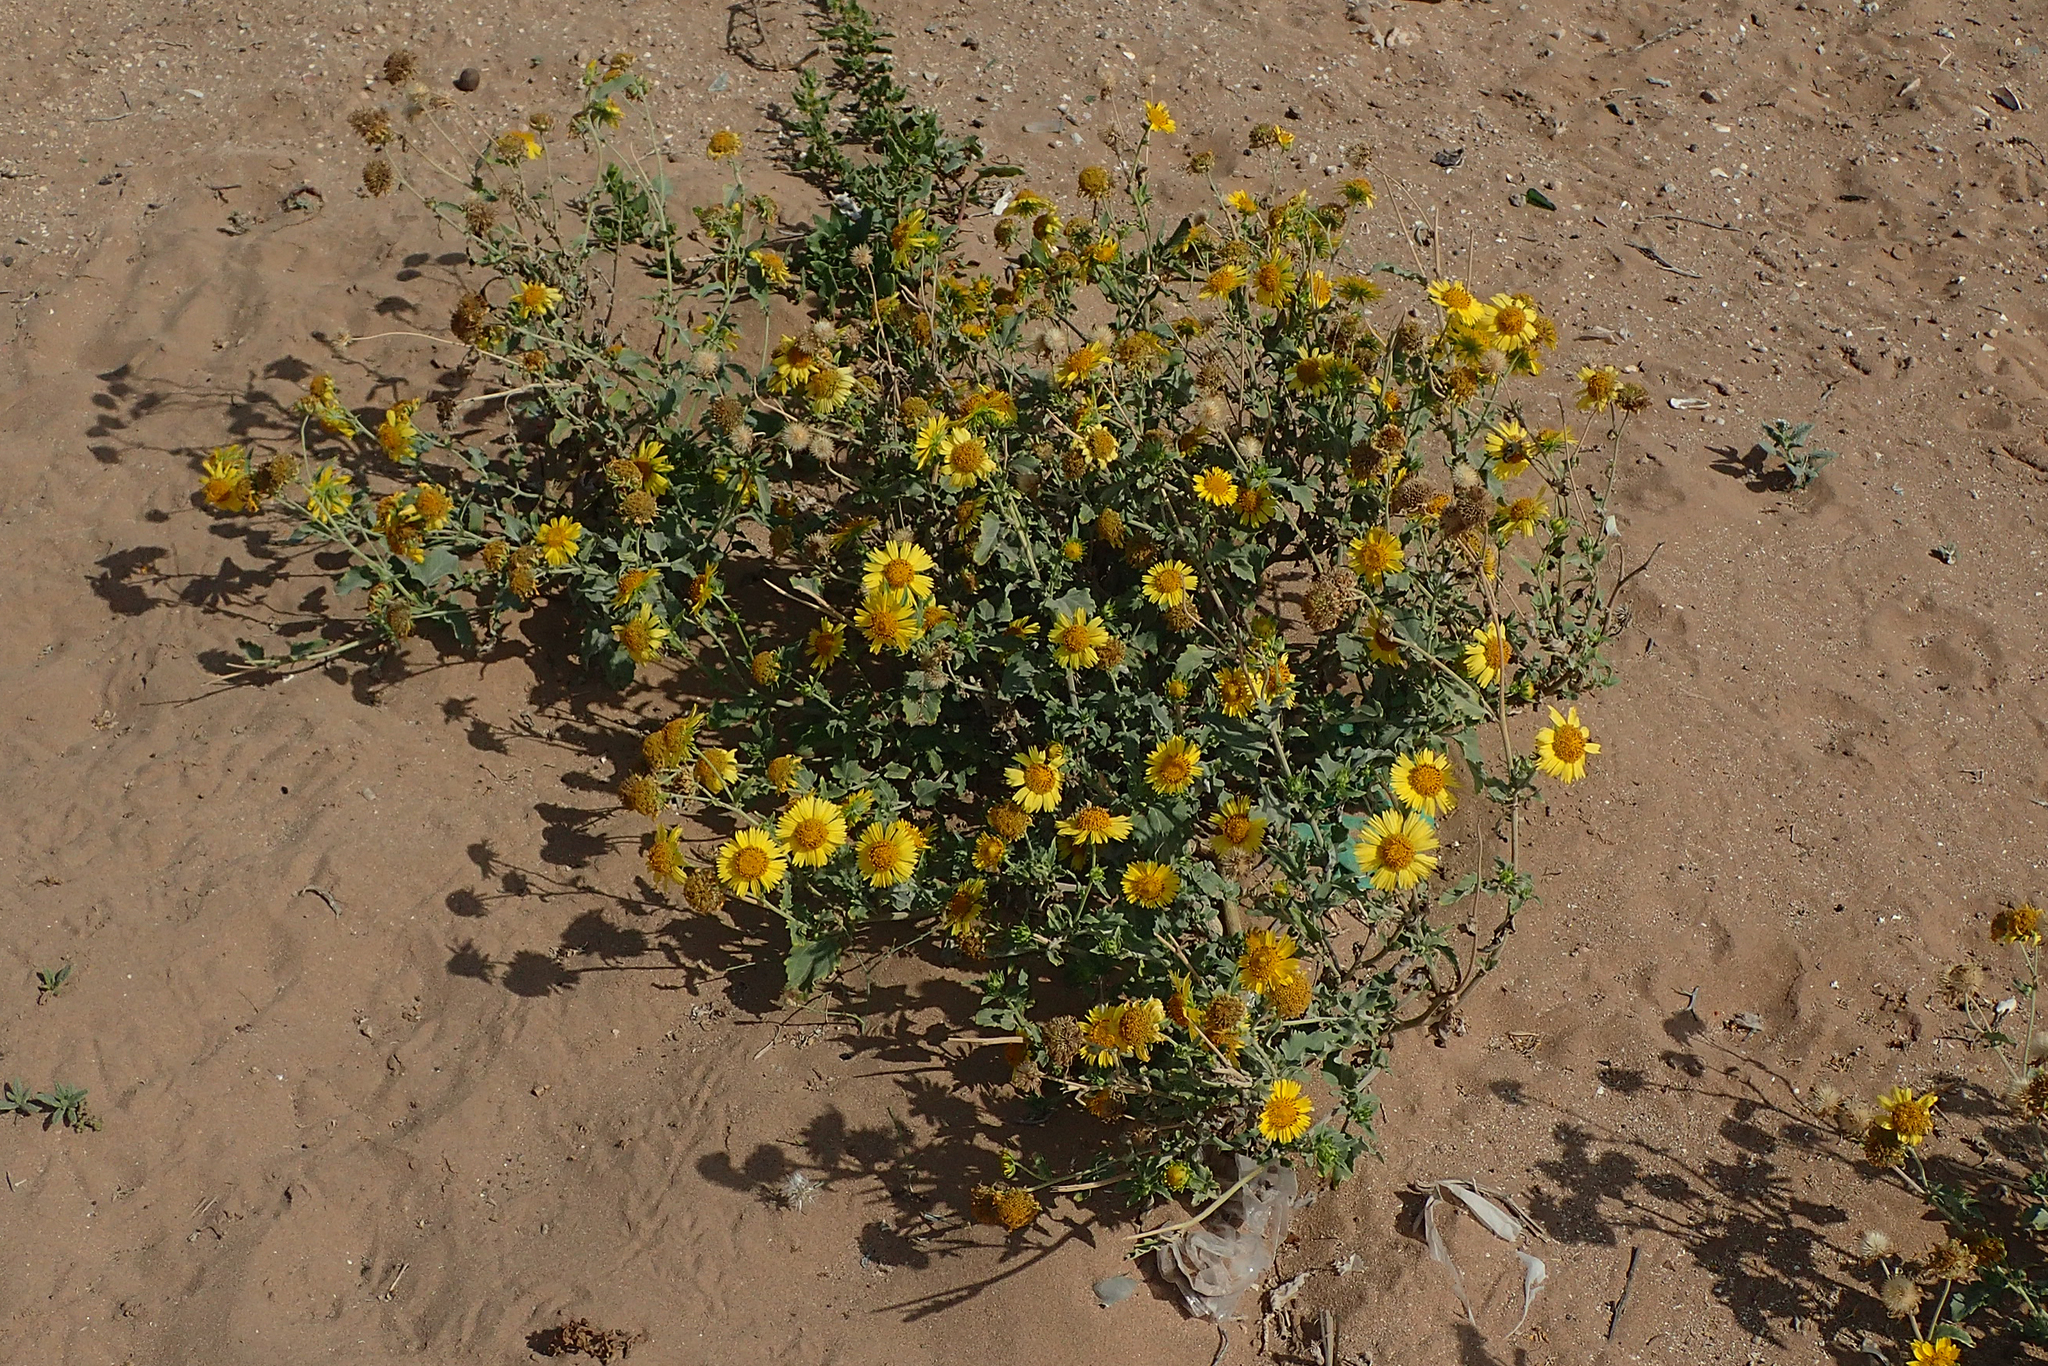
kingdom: Plantae
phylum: Tracheophyta
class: Magnoliopsida
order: Asterales
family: Asteraceae
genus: Verbesina
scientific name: Verbesina encelioides
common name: Golden crownbeard
